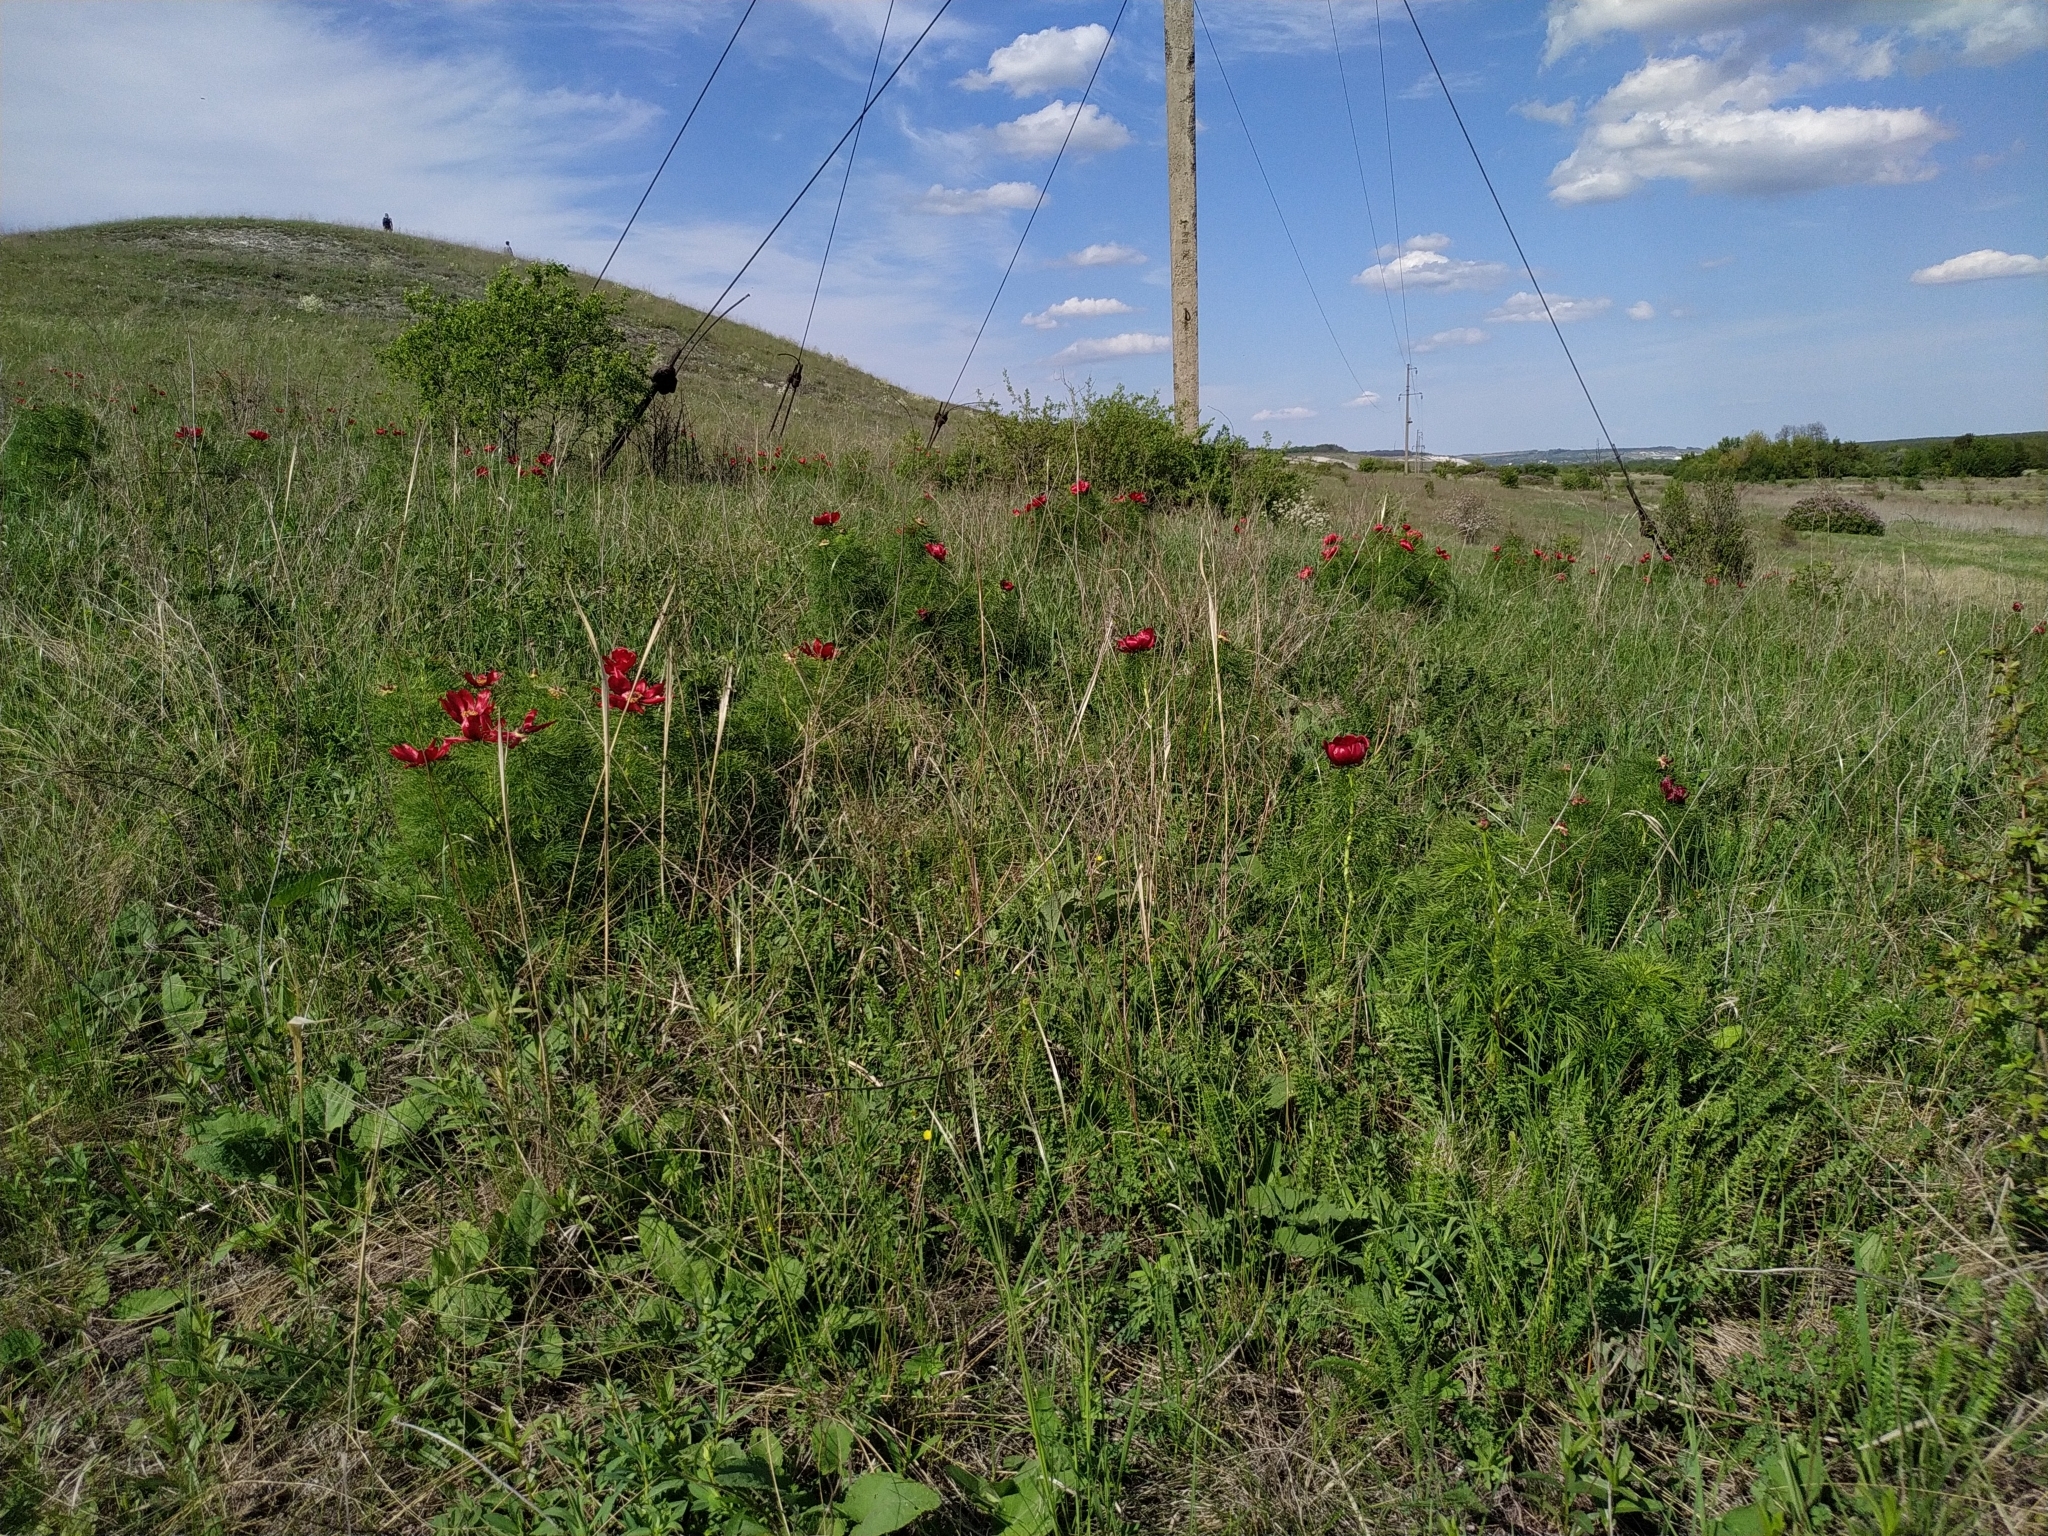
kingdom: Plantae
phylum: Tracheophyta
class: Magnoliopsida
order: Saxifragales
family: Paeoniaceae
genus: Paeonia
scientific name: Paeonia tenuifolia
